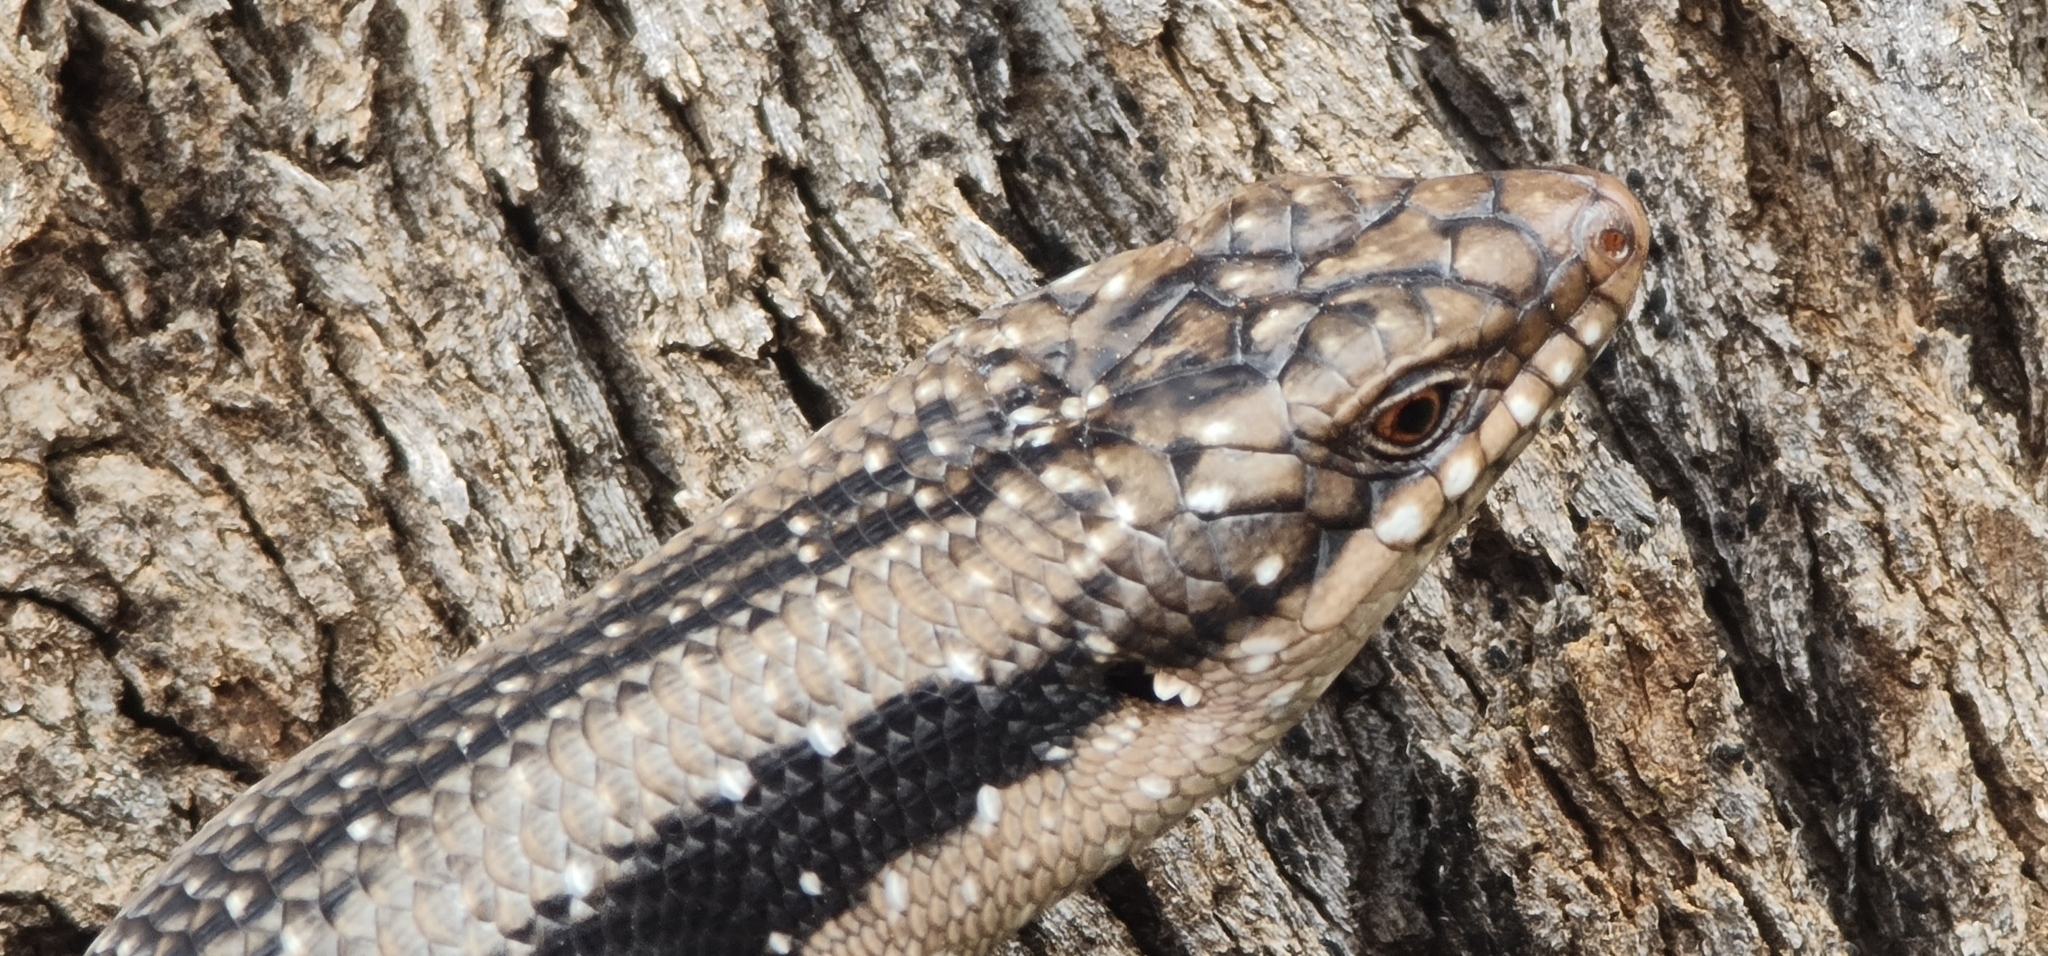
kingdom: Animalia
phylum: Chordata
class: Squamata
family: Scincidae
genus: Egernia
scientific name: Egernia striolata
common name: Tree skink
